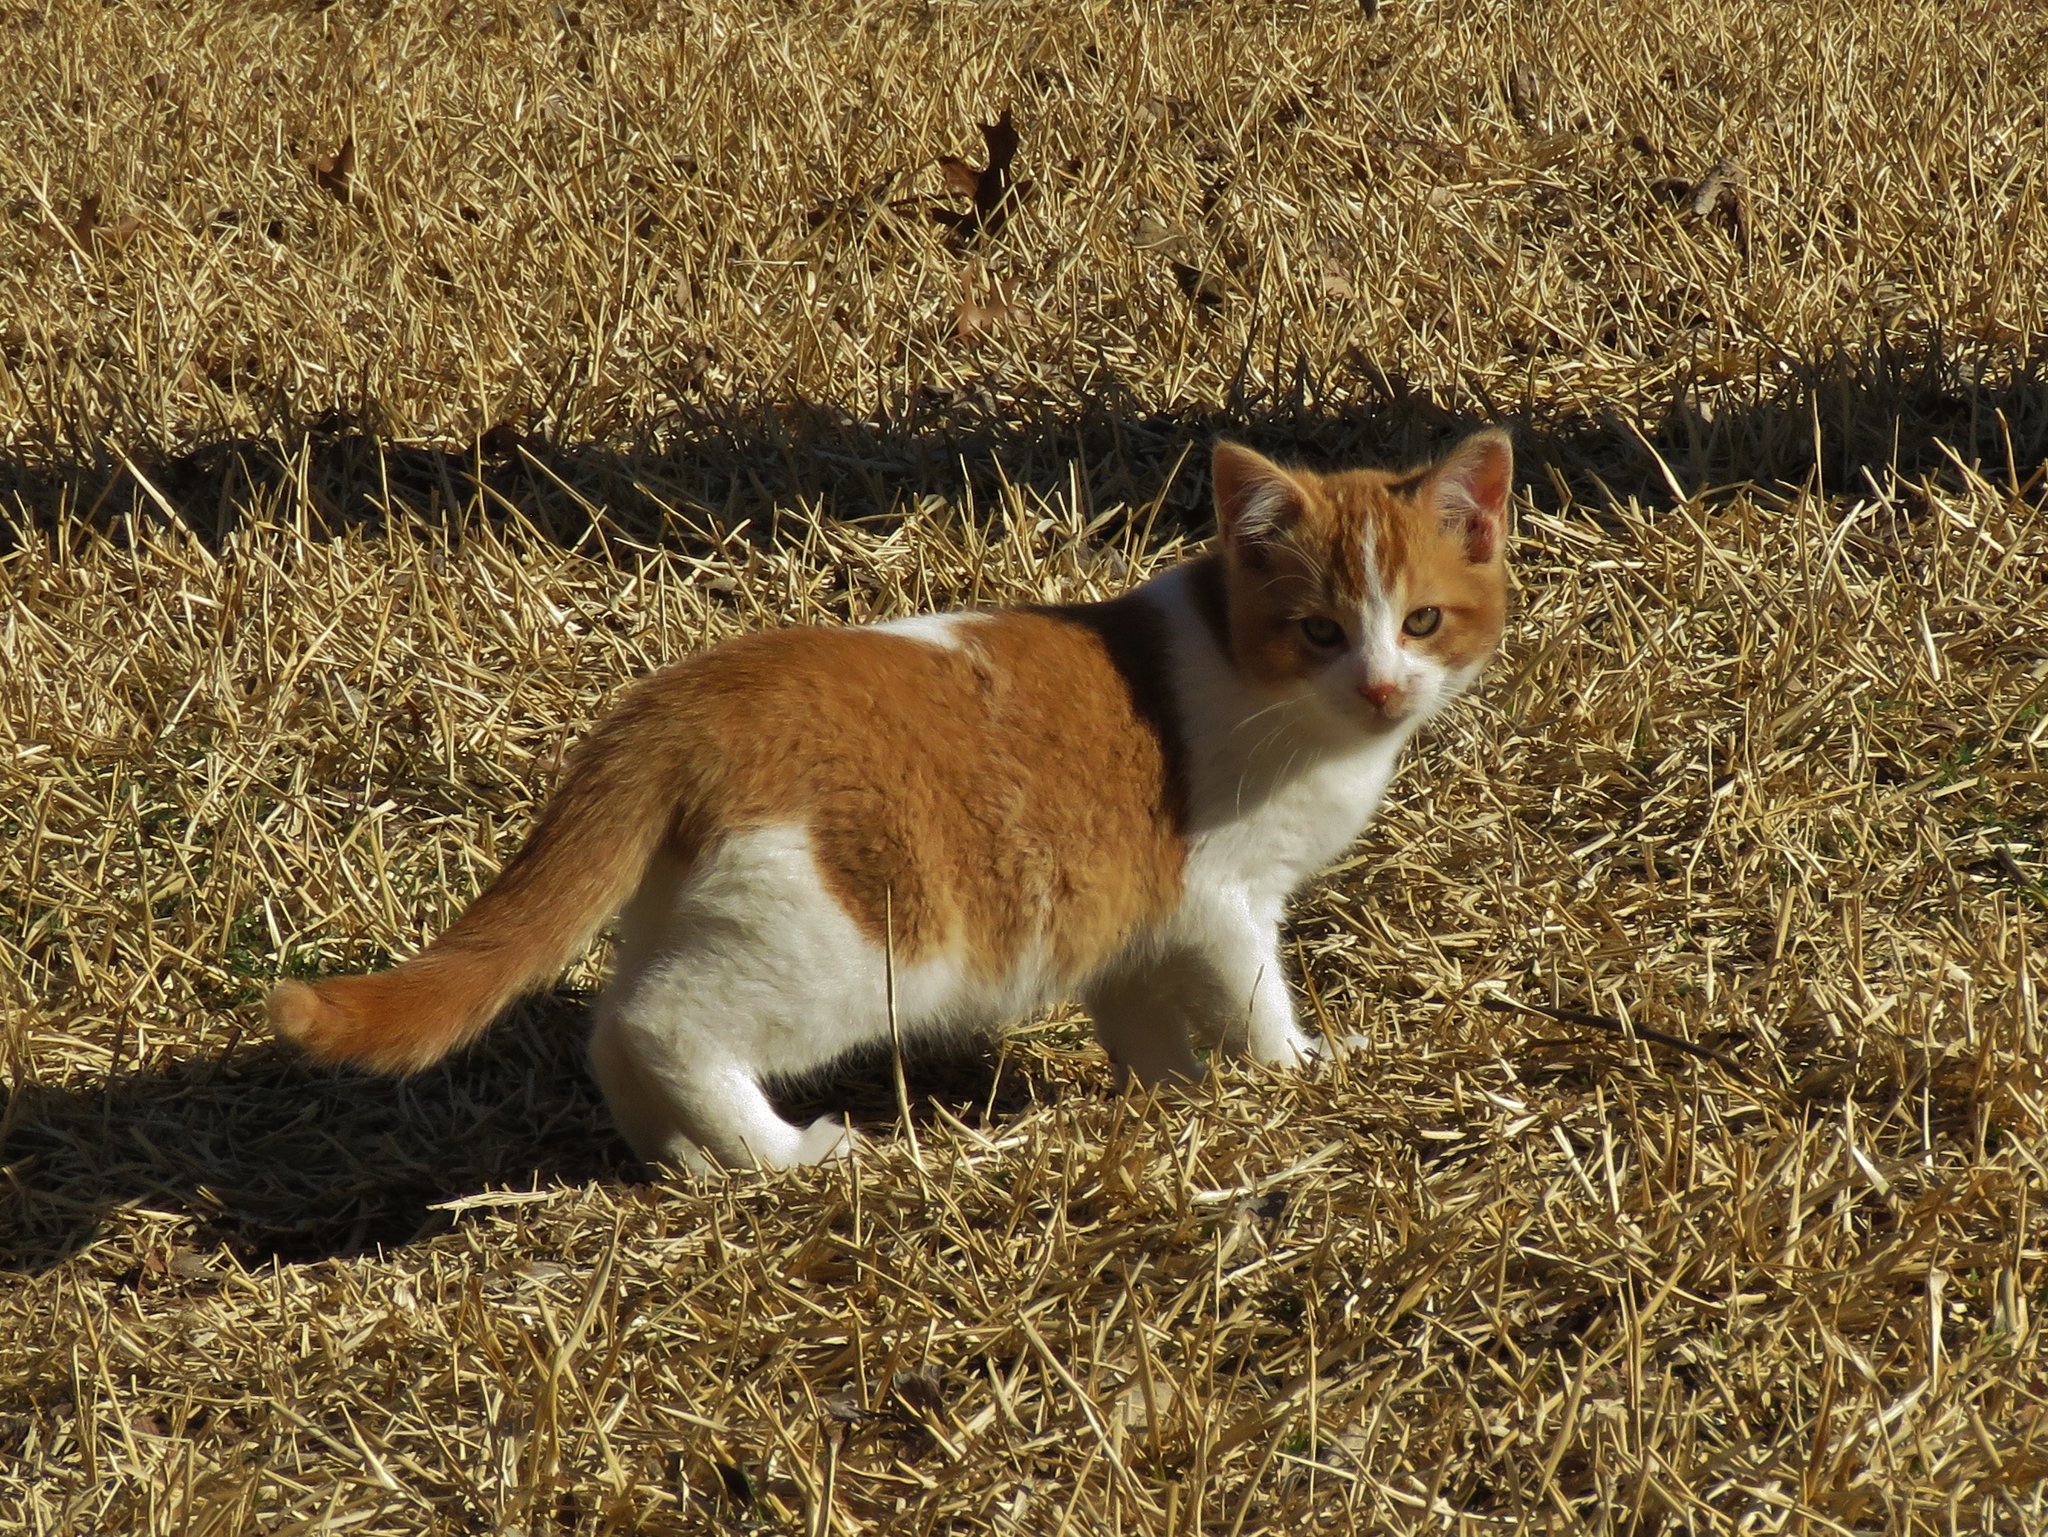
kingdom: Animalia
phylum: Chordata
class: Mammalia
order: Carnivora
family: Felidae
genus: Felis
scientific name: Felis catus
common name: Domestic cat
